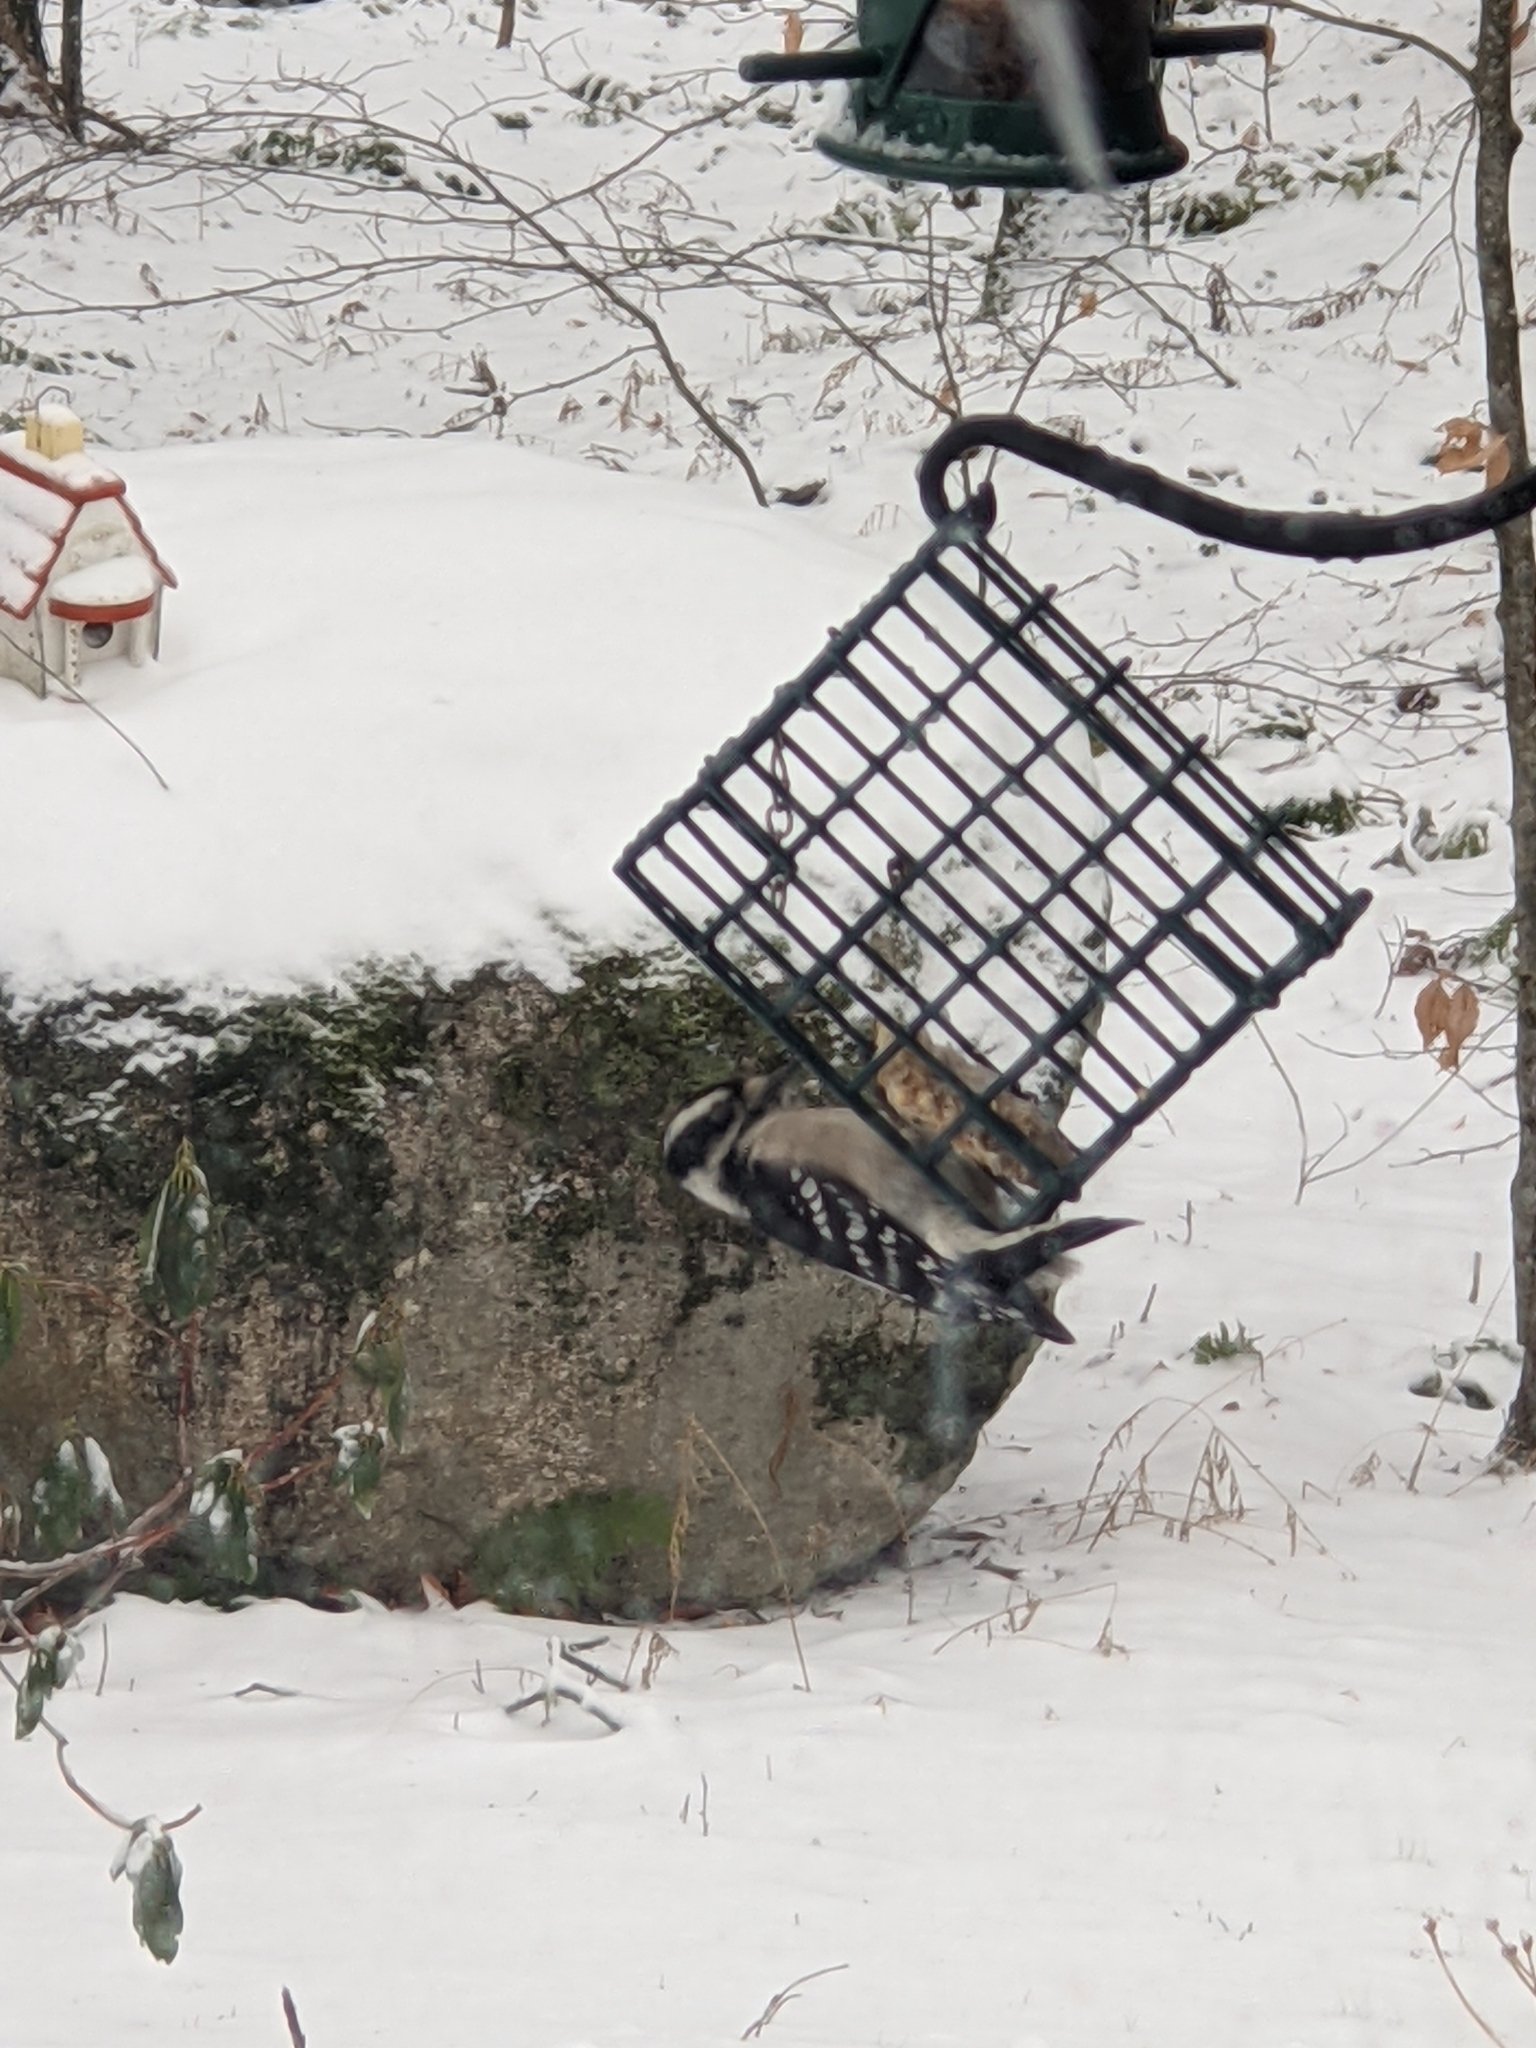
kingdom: Animalia
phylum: Chordata
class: Aves
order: Piciformes
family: Picidae
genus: Dryobates
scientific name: Dryobates pubescens
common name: Downy woodpecker
